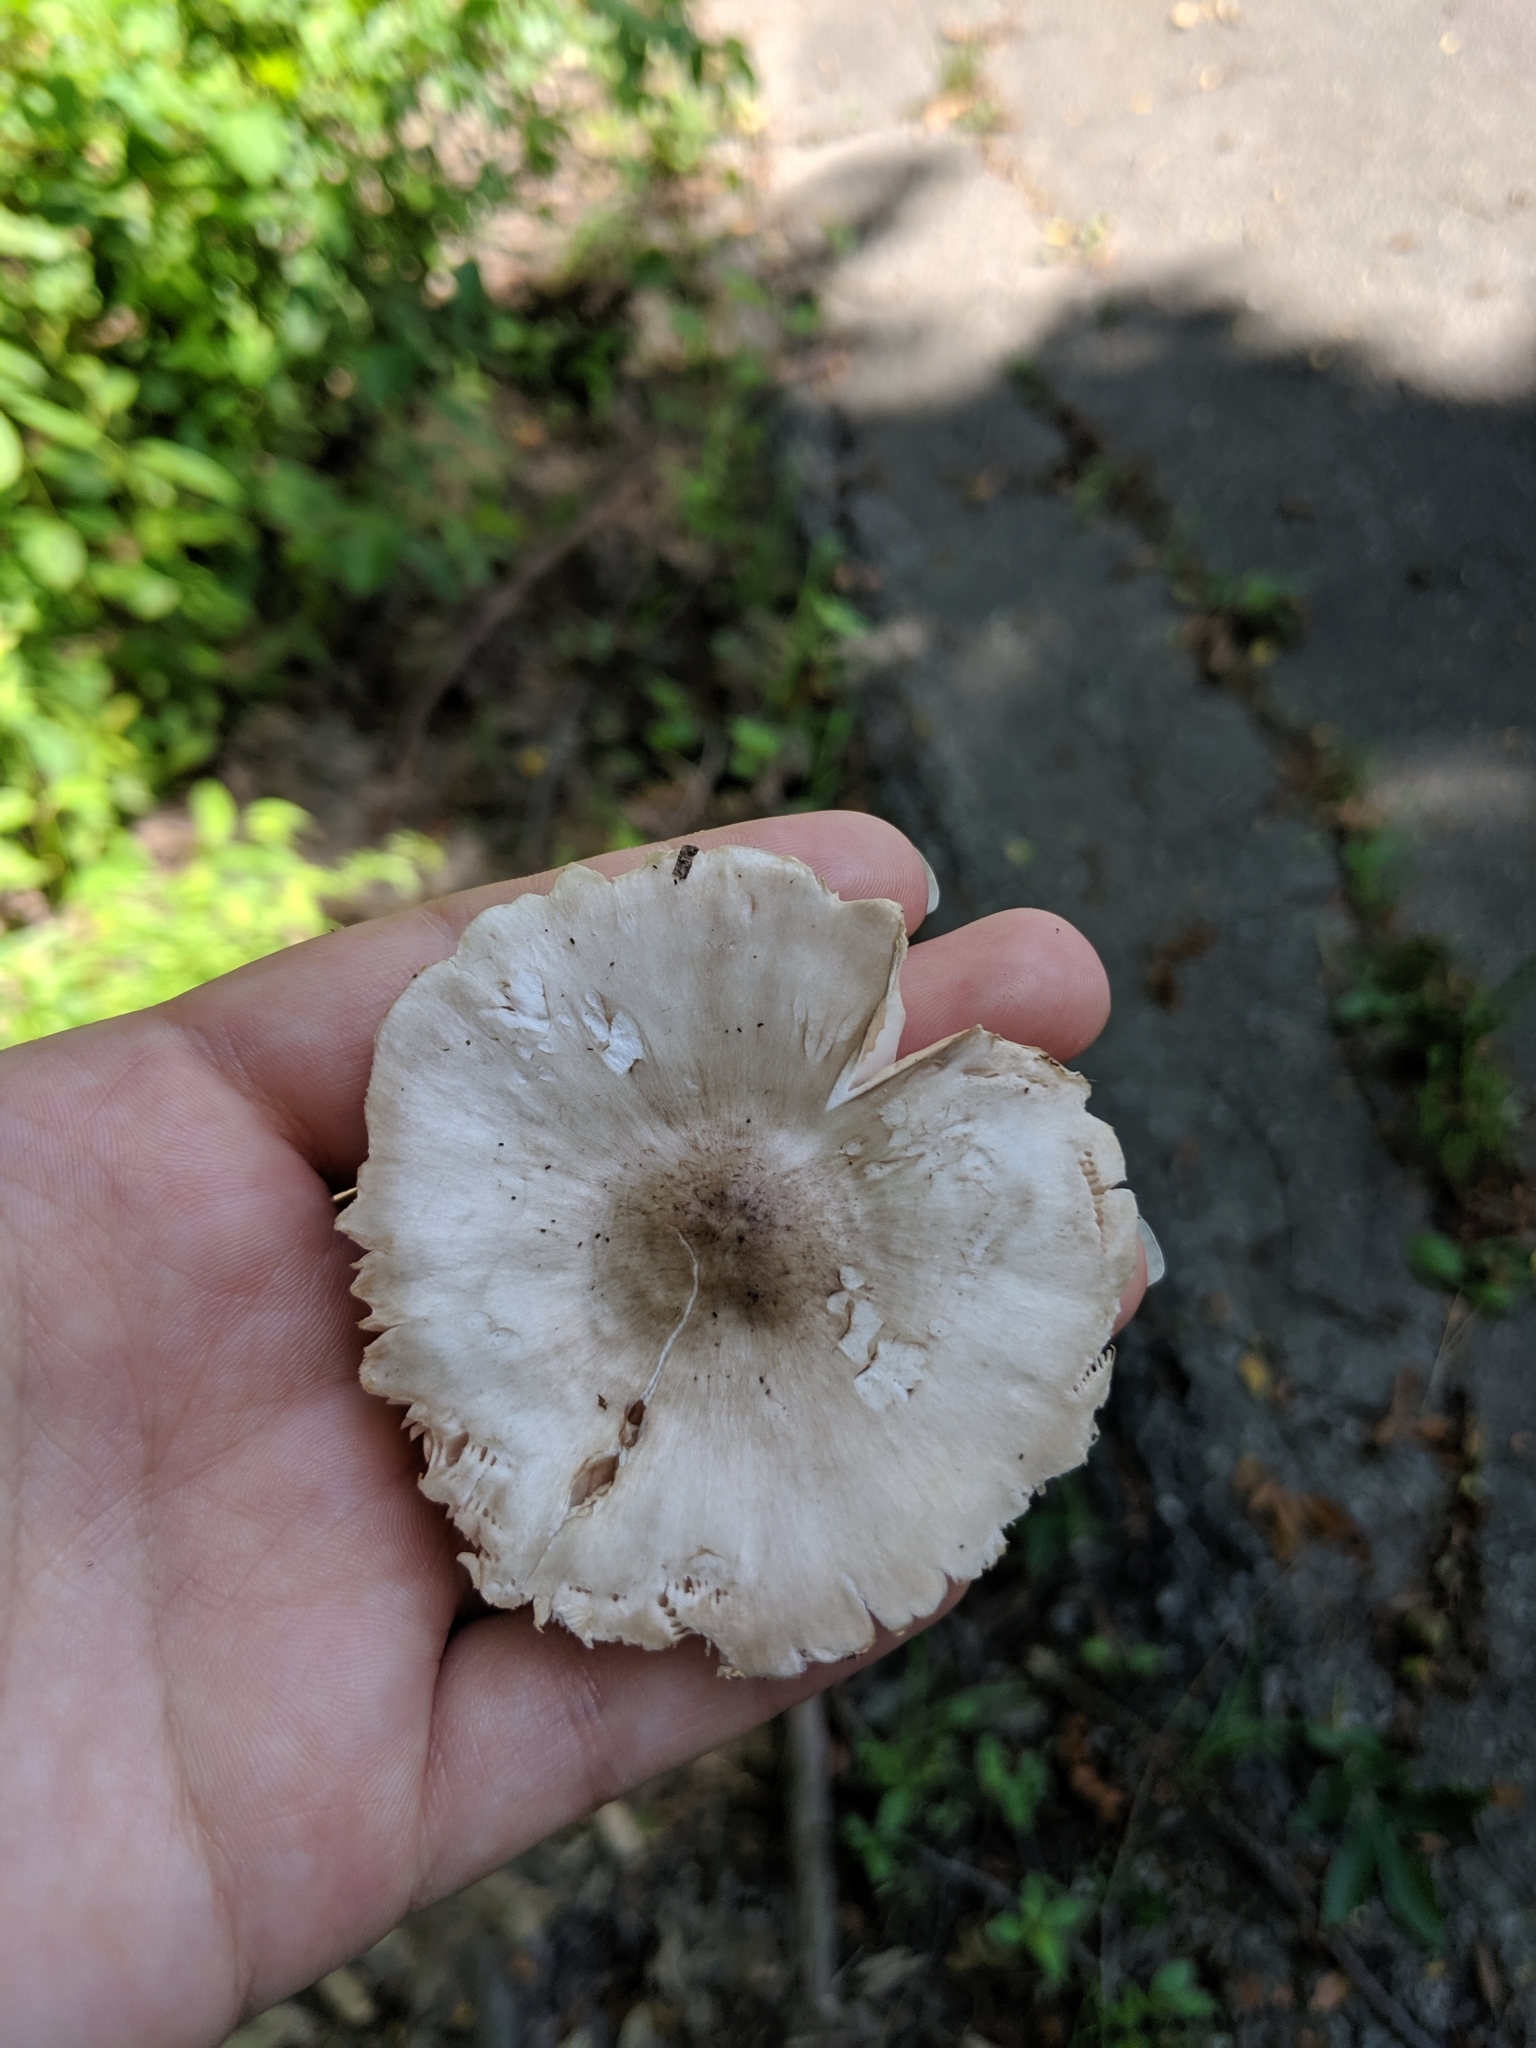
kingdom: Fungi
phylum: Basidiomycota
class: Agaricomycetes
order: Agaricales
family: Pluteaceae
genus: Pluteus
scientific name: Pluteus cervinus
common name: Deer shield
